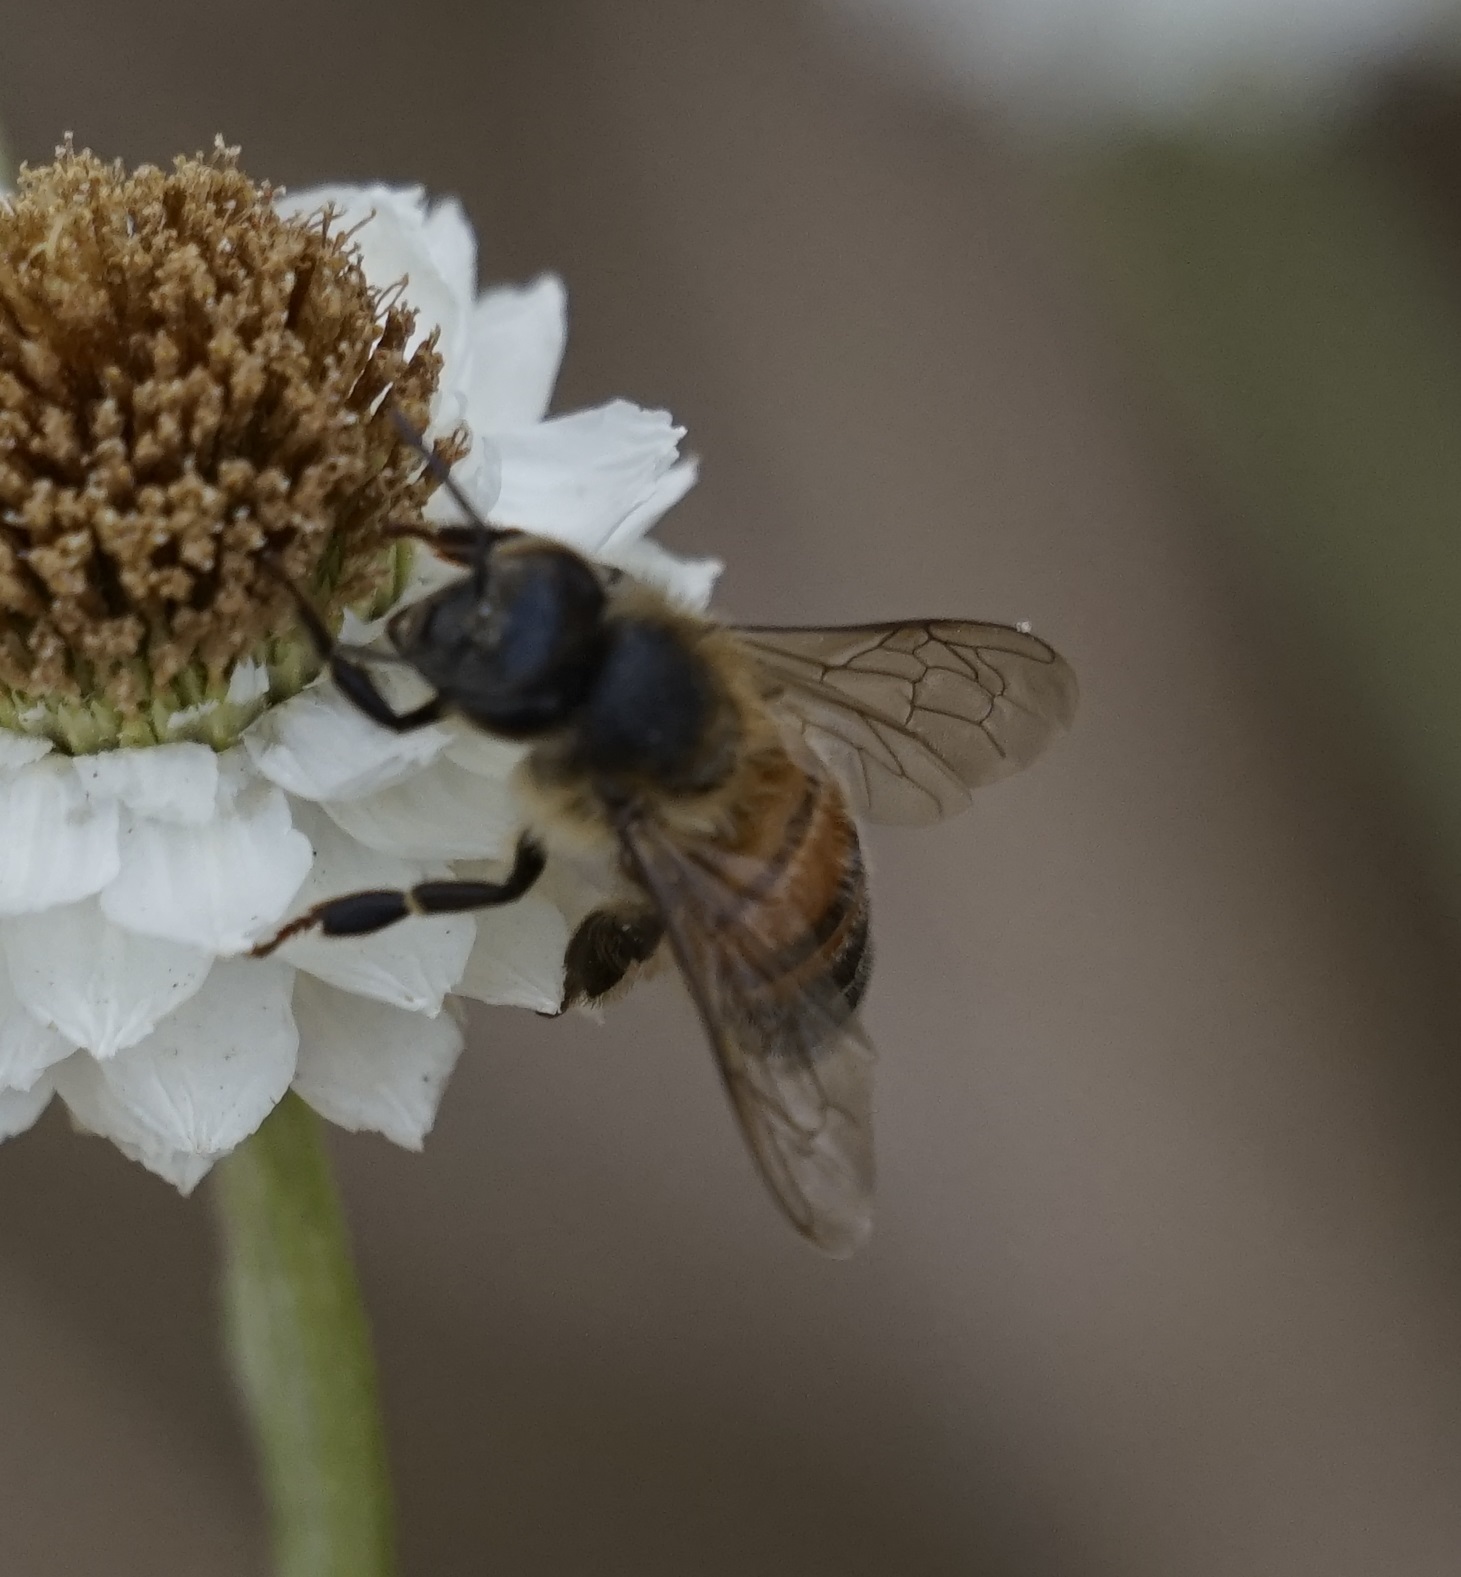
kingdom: Animalia
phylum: Arthropoda
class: Insecta
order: Hymenoptera
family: Apidae
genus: Apis
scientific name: Apis mellifera
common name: Honey bee
